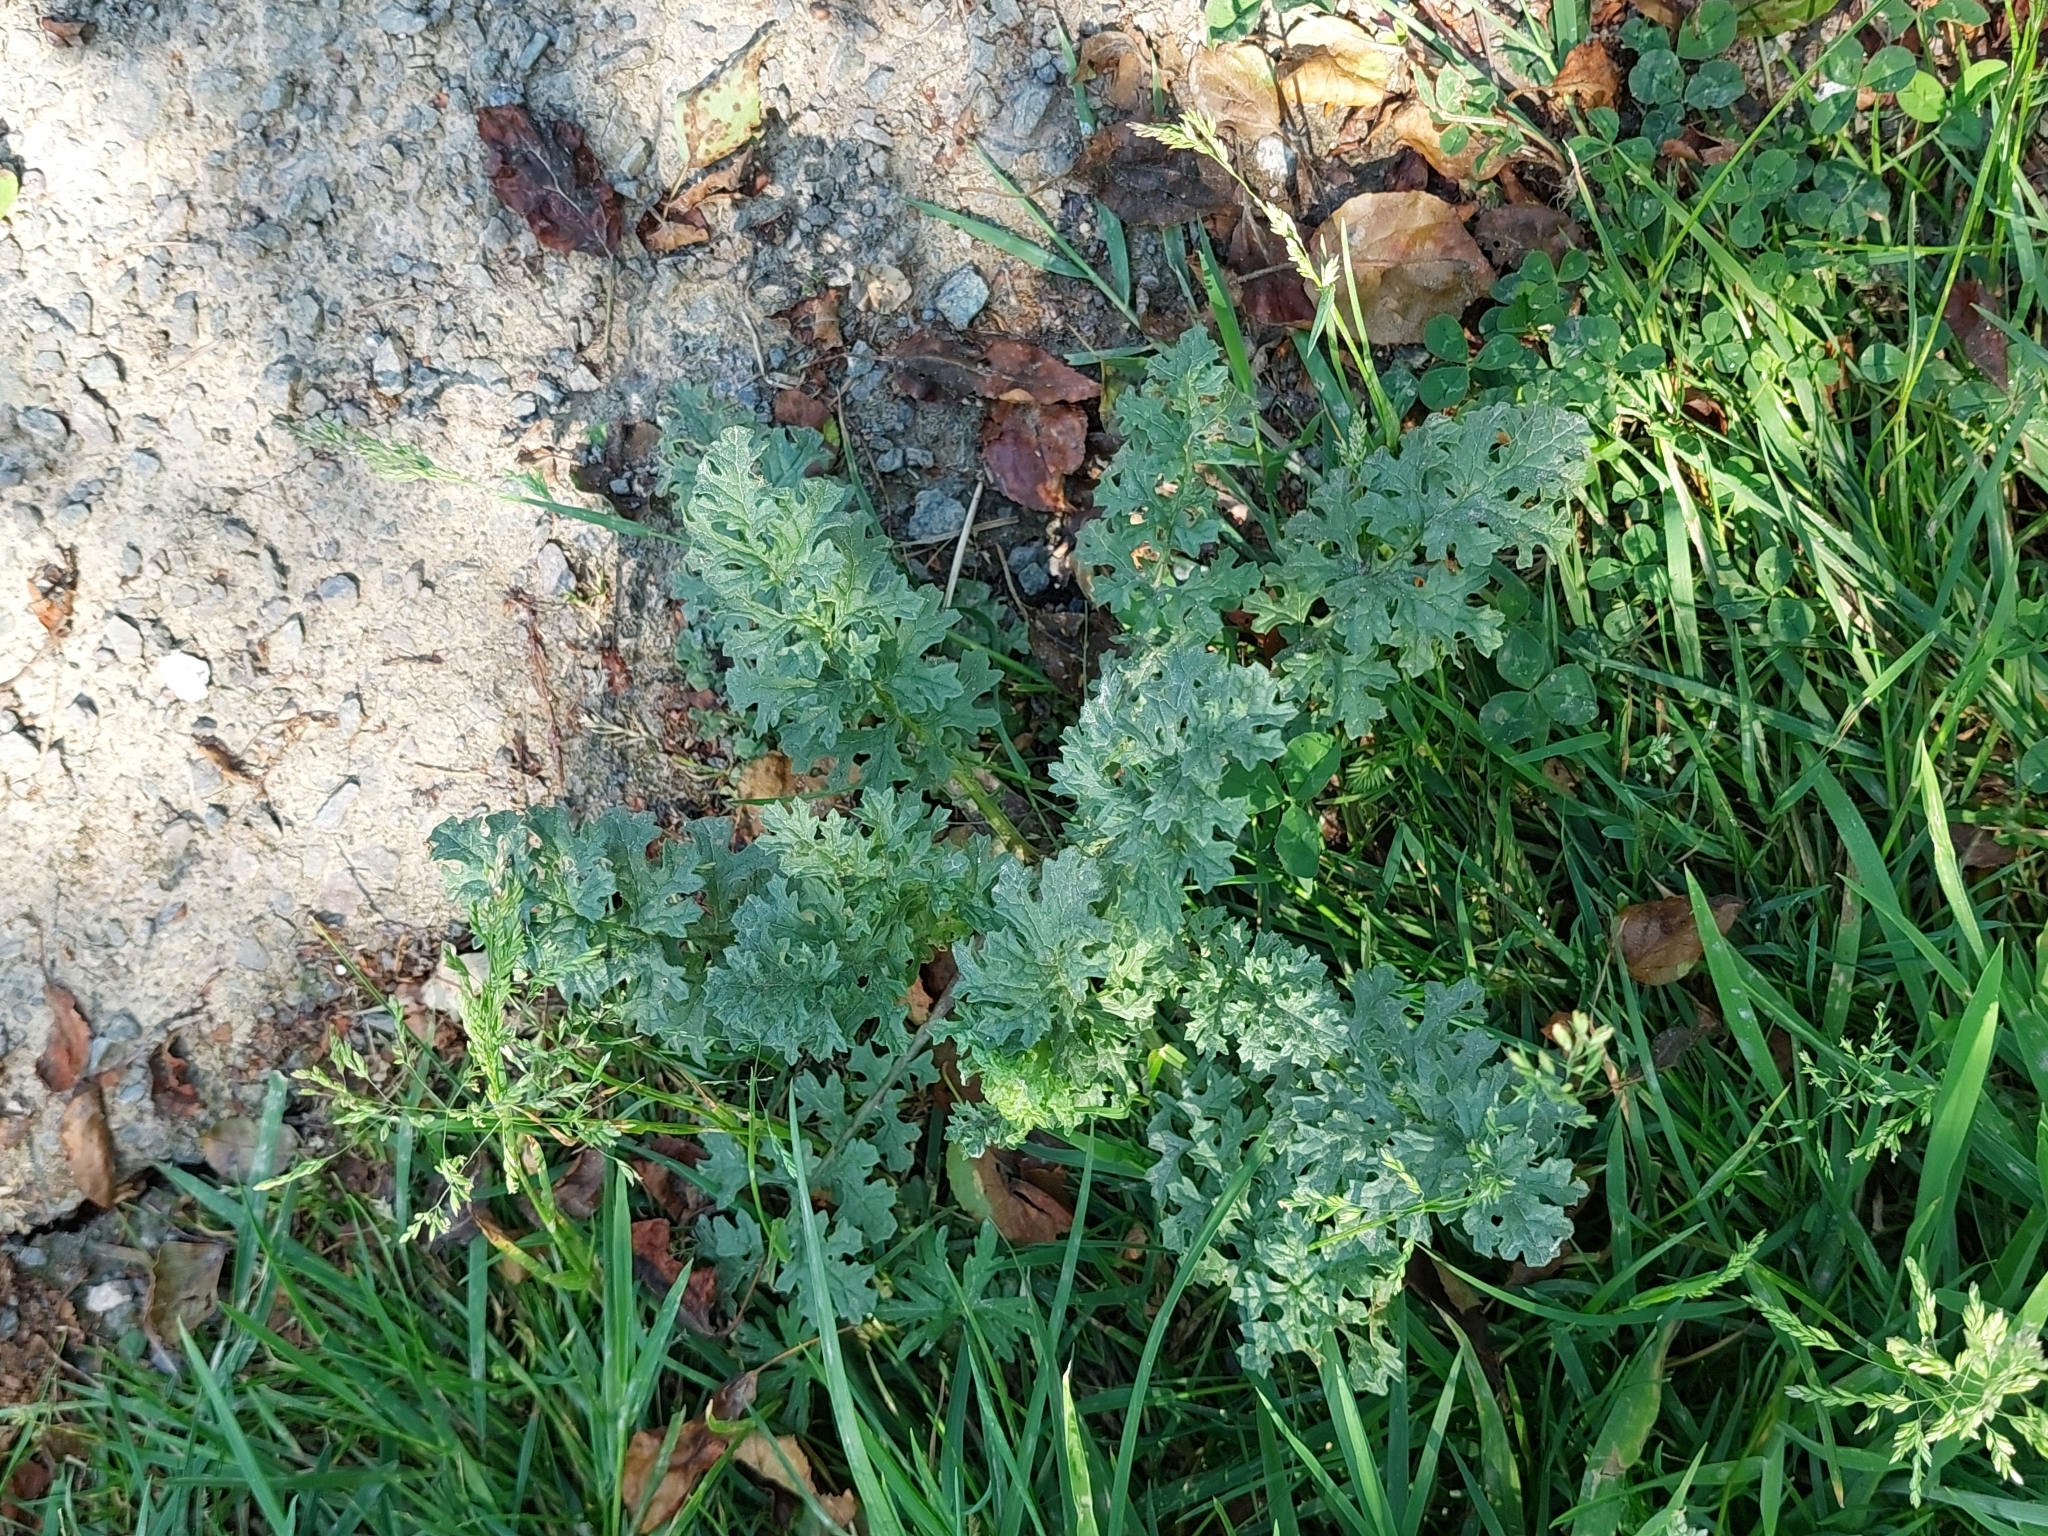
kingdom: Plantae
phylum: Tracheophyta
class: Magnoliopsida
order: Asterales
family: Asteraceae
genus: Jacobaea
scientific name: Jacobaea vulgaris
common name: Stinking willie
